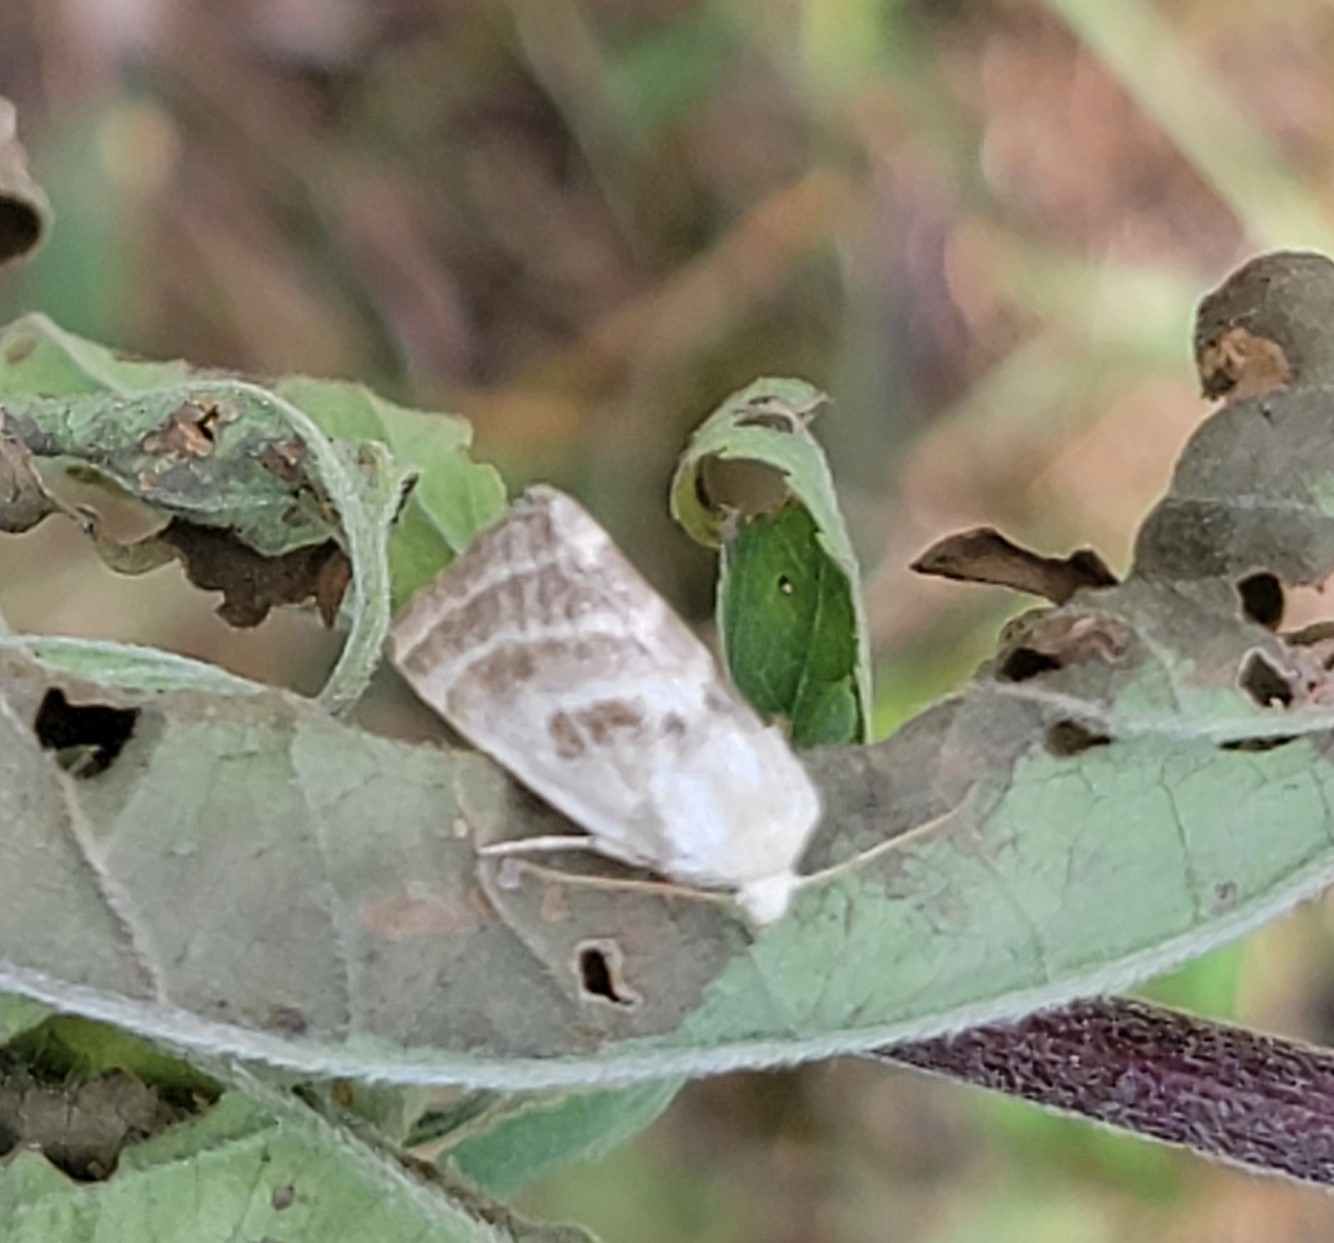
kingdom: Animalia
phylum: Arthropoda
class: Insecta
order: Lepidoptera
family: Noctuidae
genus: Schinia
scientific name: Schinia trifascia
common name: Three-lined flower moth
